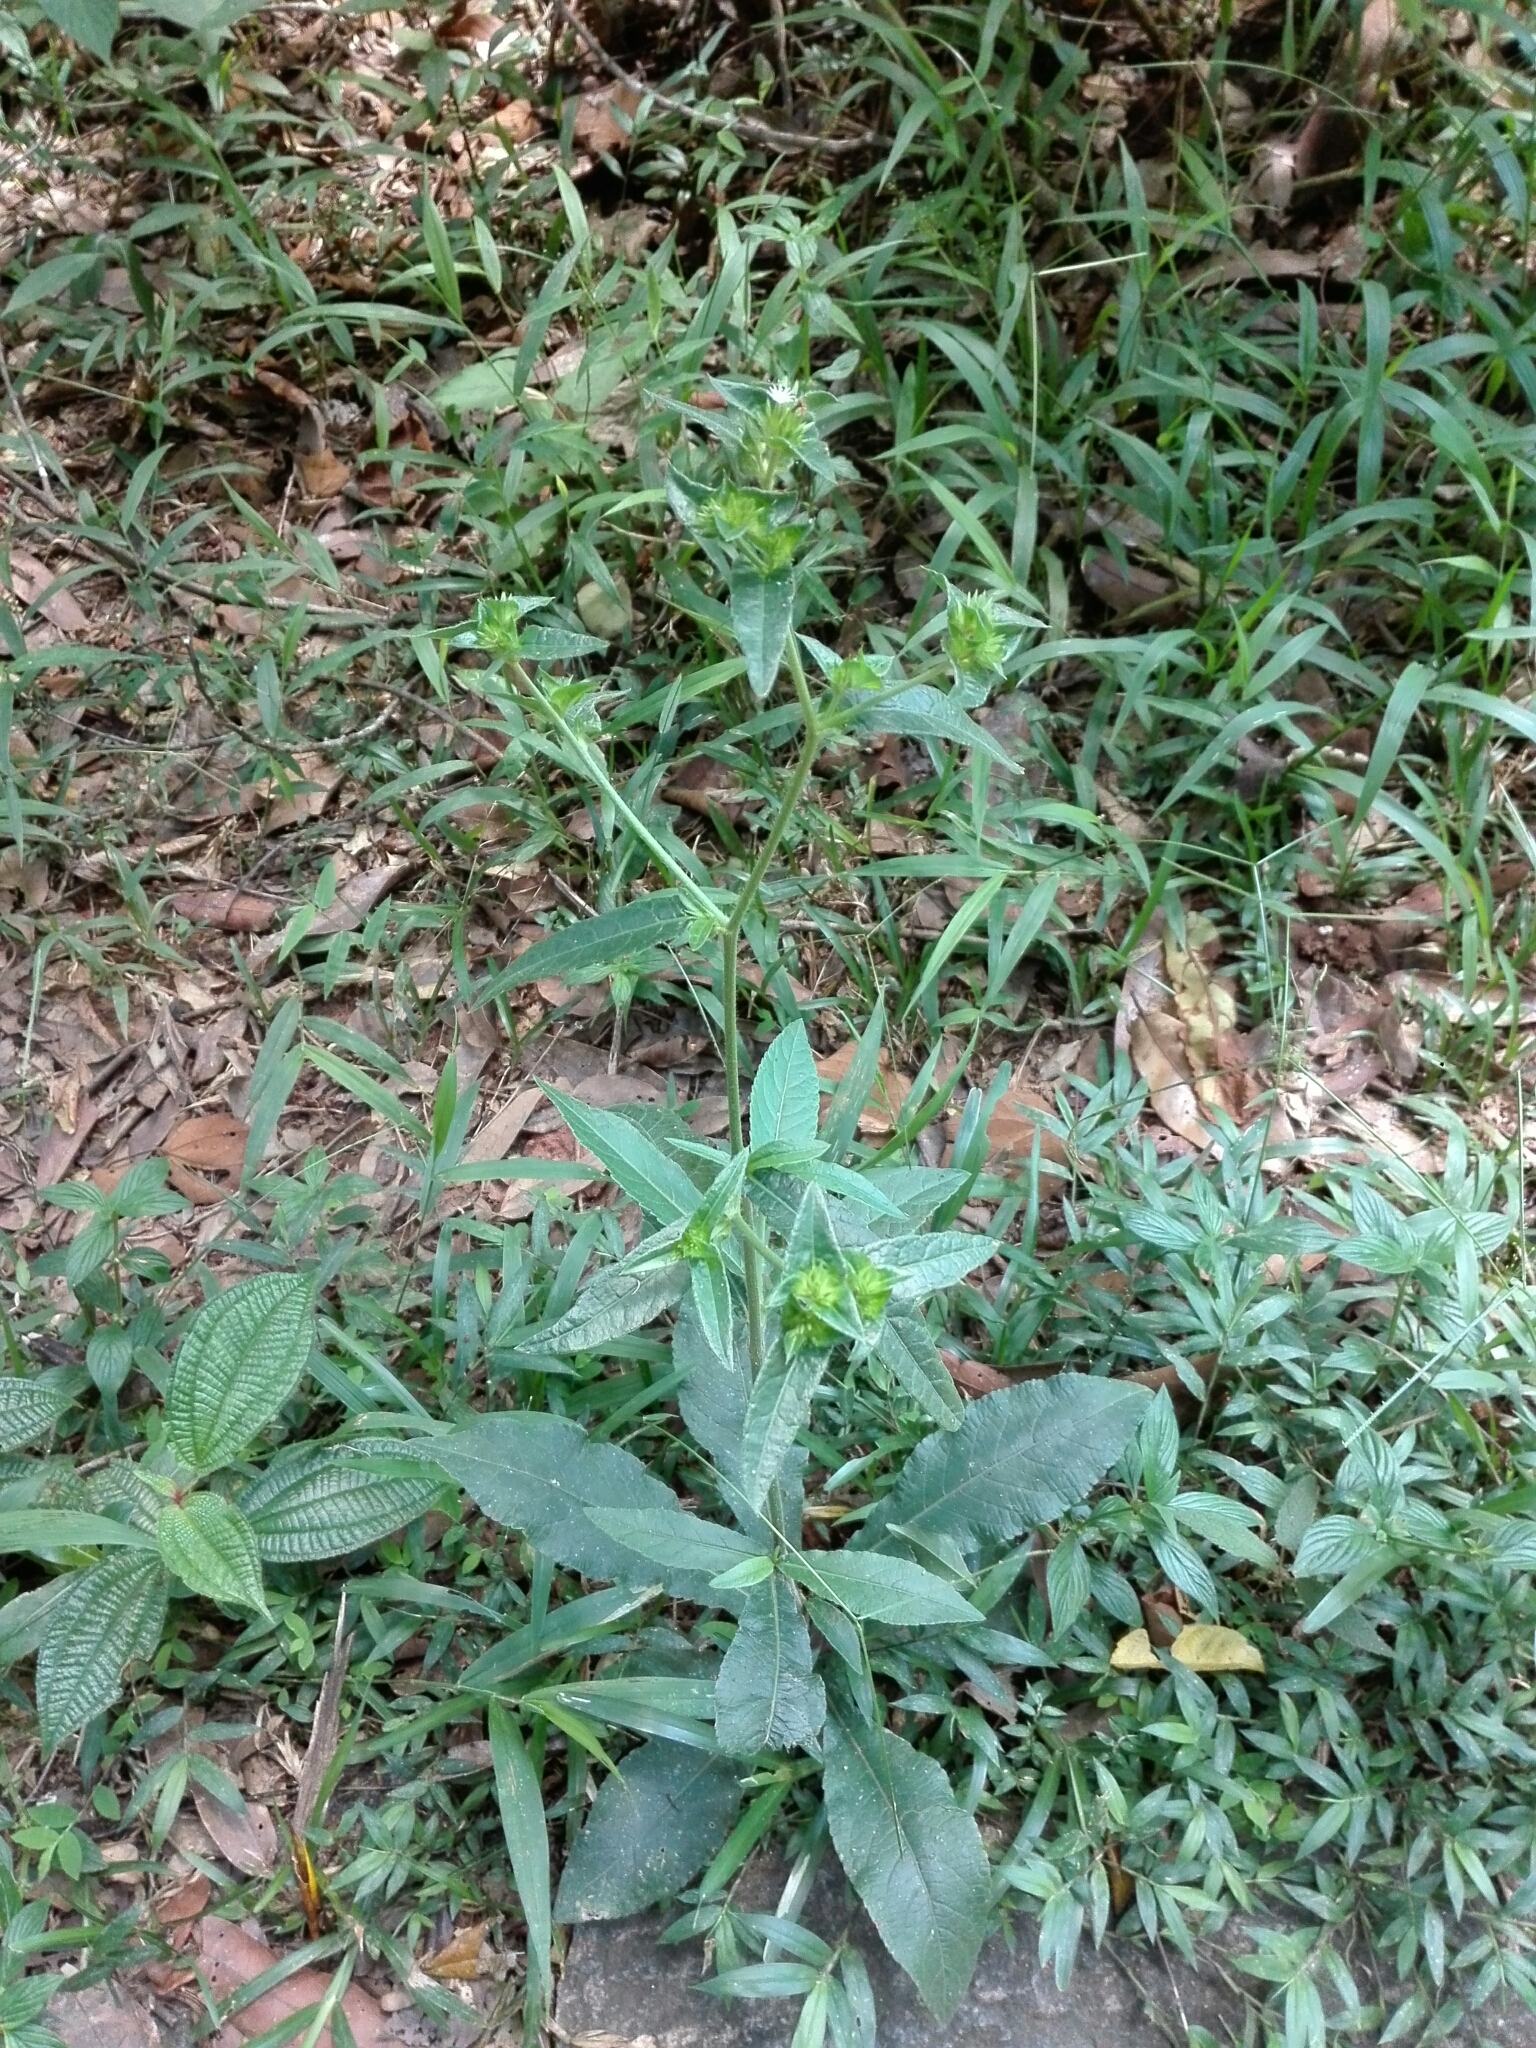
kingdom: Plantae
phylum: Tracheophyta
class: Magnoliopsida
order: Asterales
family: Asteraceae
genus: Elephantopus
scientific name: Elephantopus scaber
